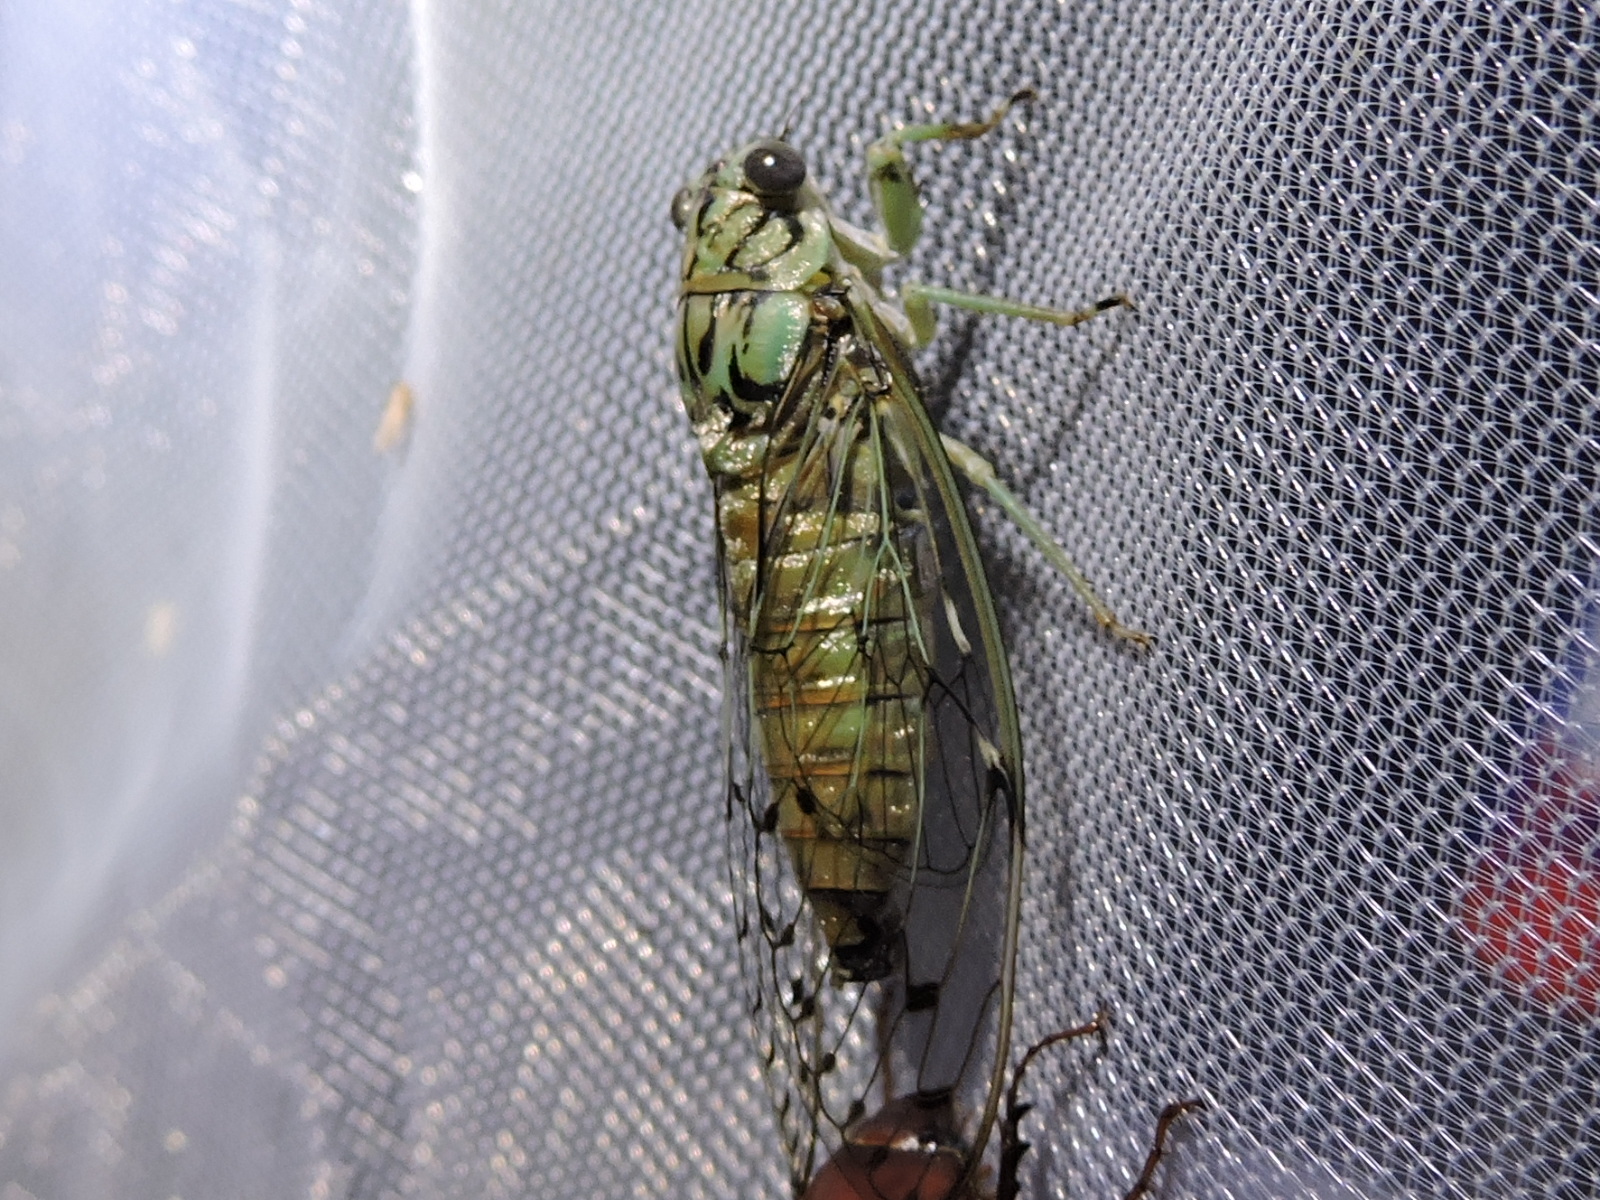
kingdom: Animalia
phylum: Arthropoda
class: Insecta
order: Hemiptera
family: Cicadidae
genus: Neocicada
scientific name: Neocicada hieroglyphica
